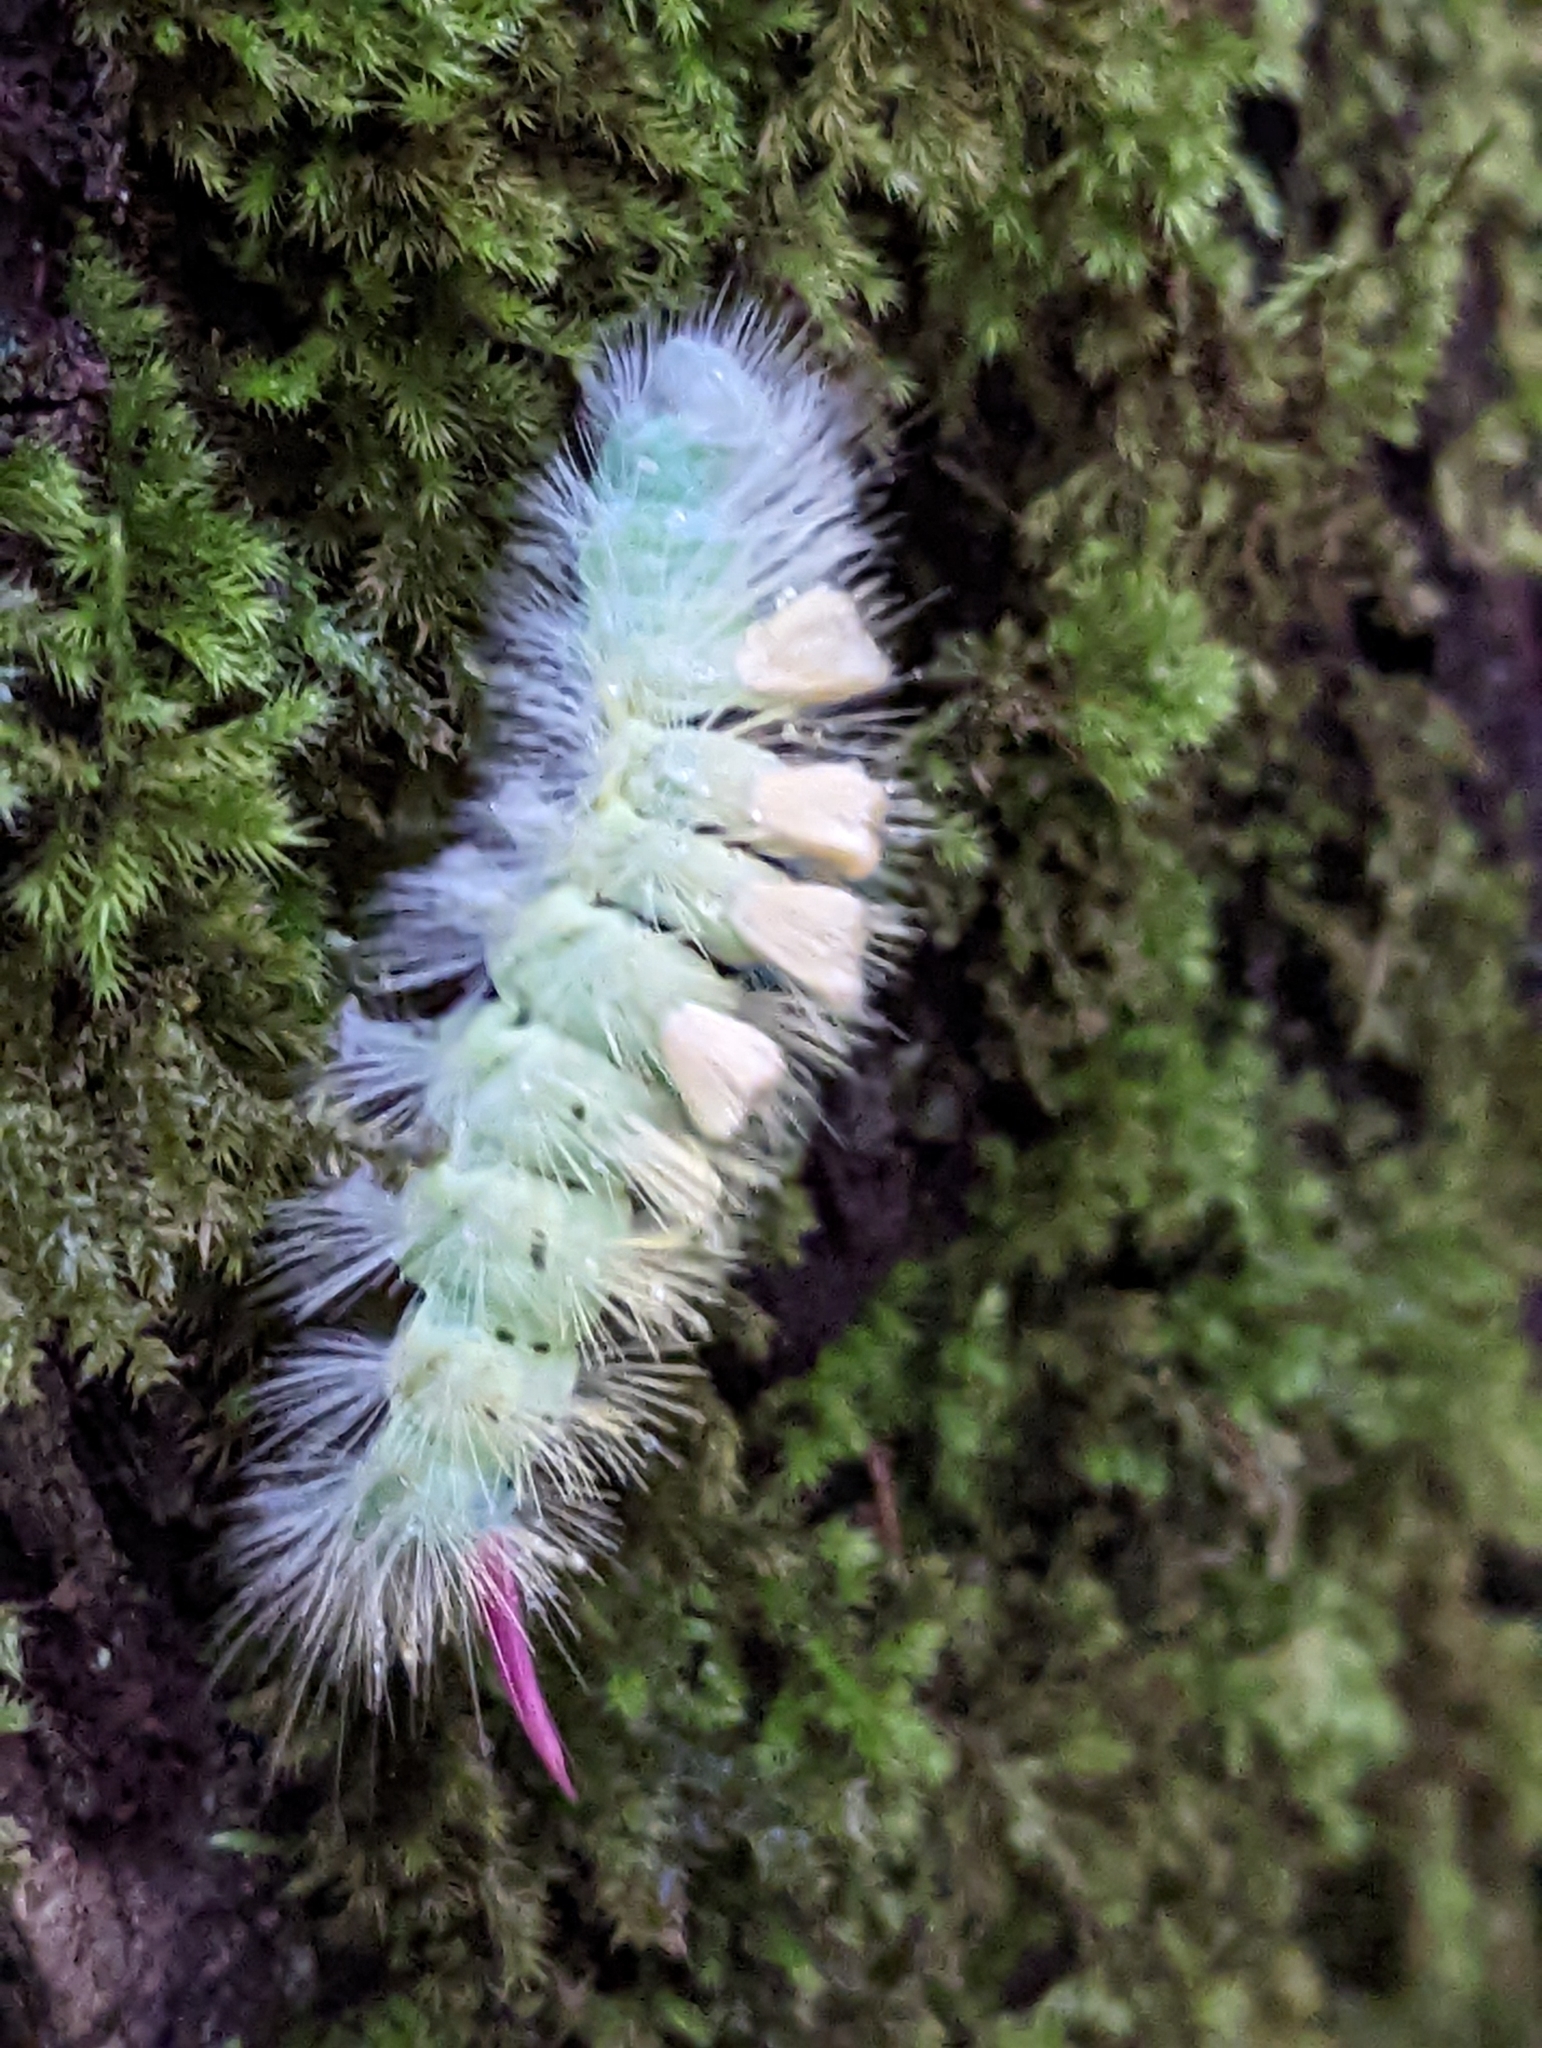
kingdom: Animalia
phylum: Arthropoda
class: Insecta
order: Lepidoptera
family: Erebidae
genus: Calliteara
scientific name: Calliteara pudibunda
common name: Pale tussock
